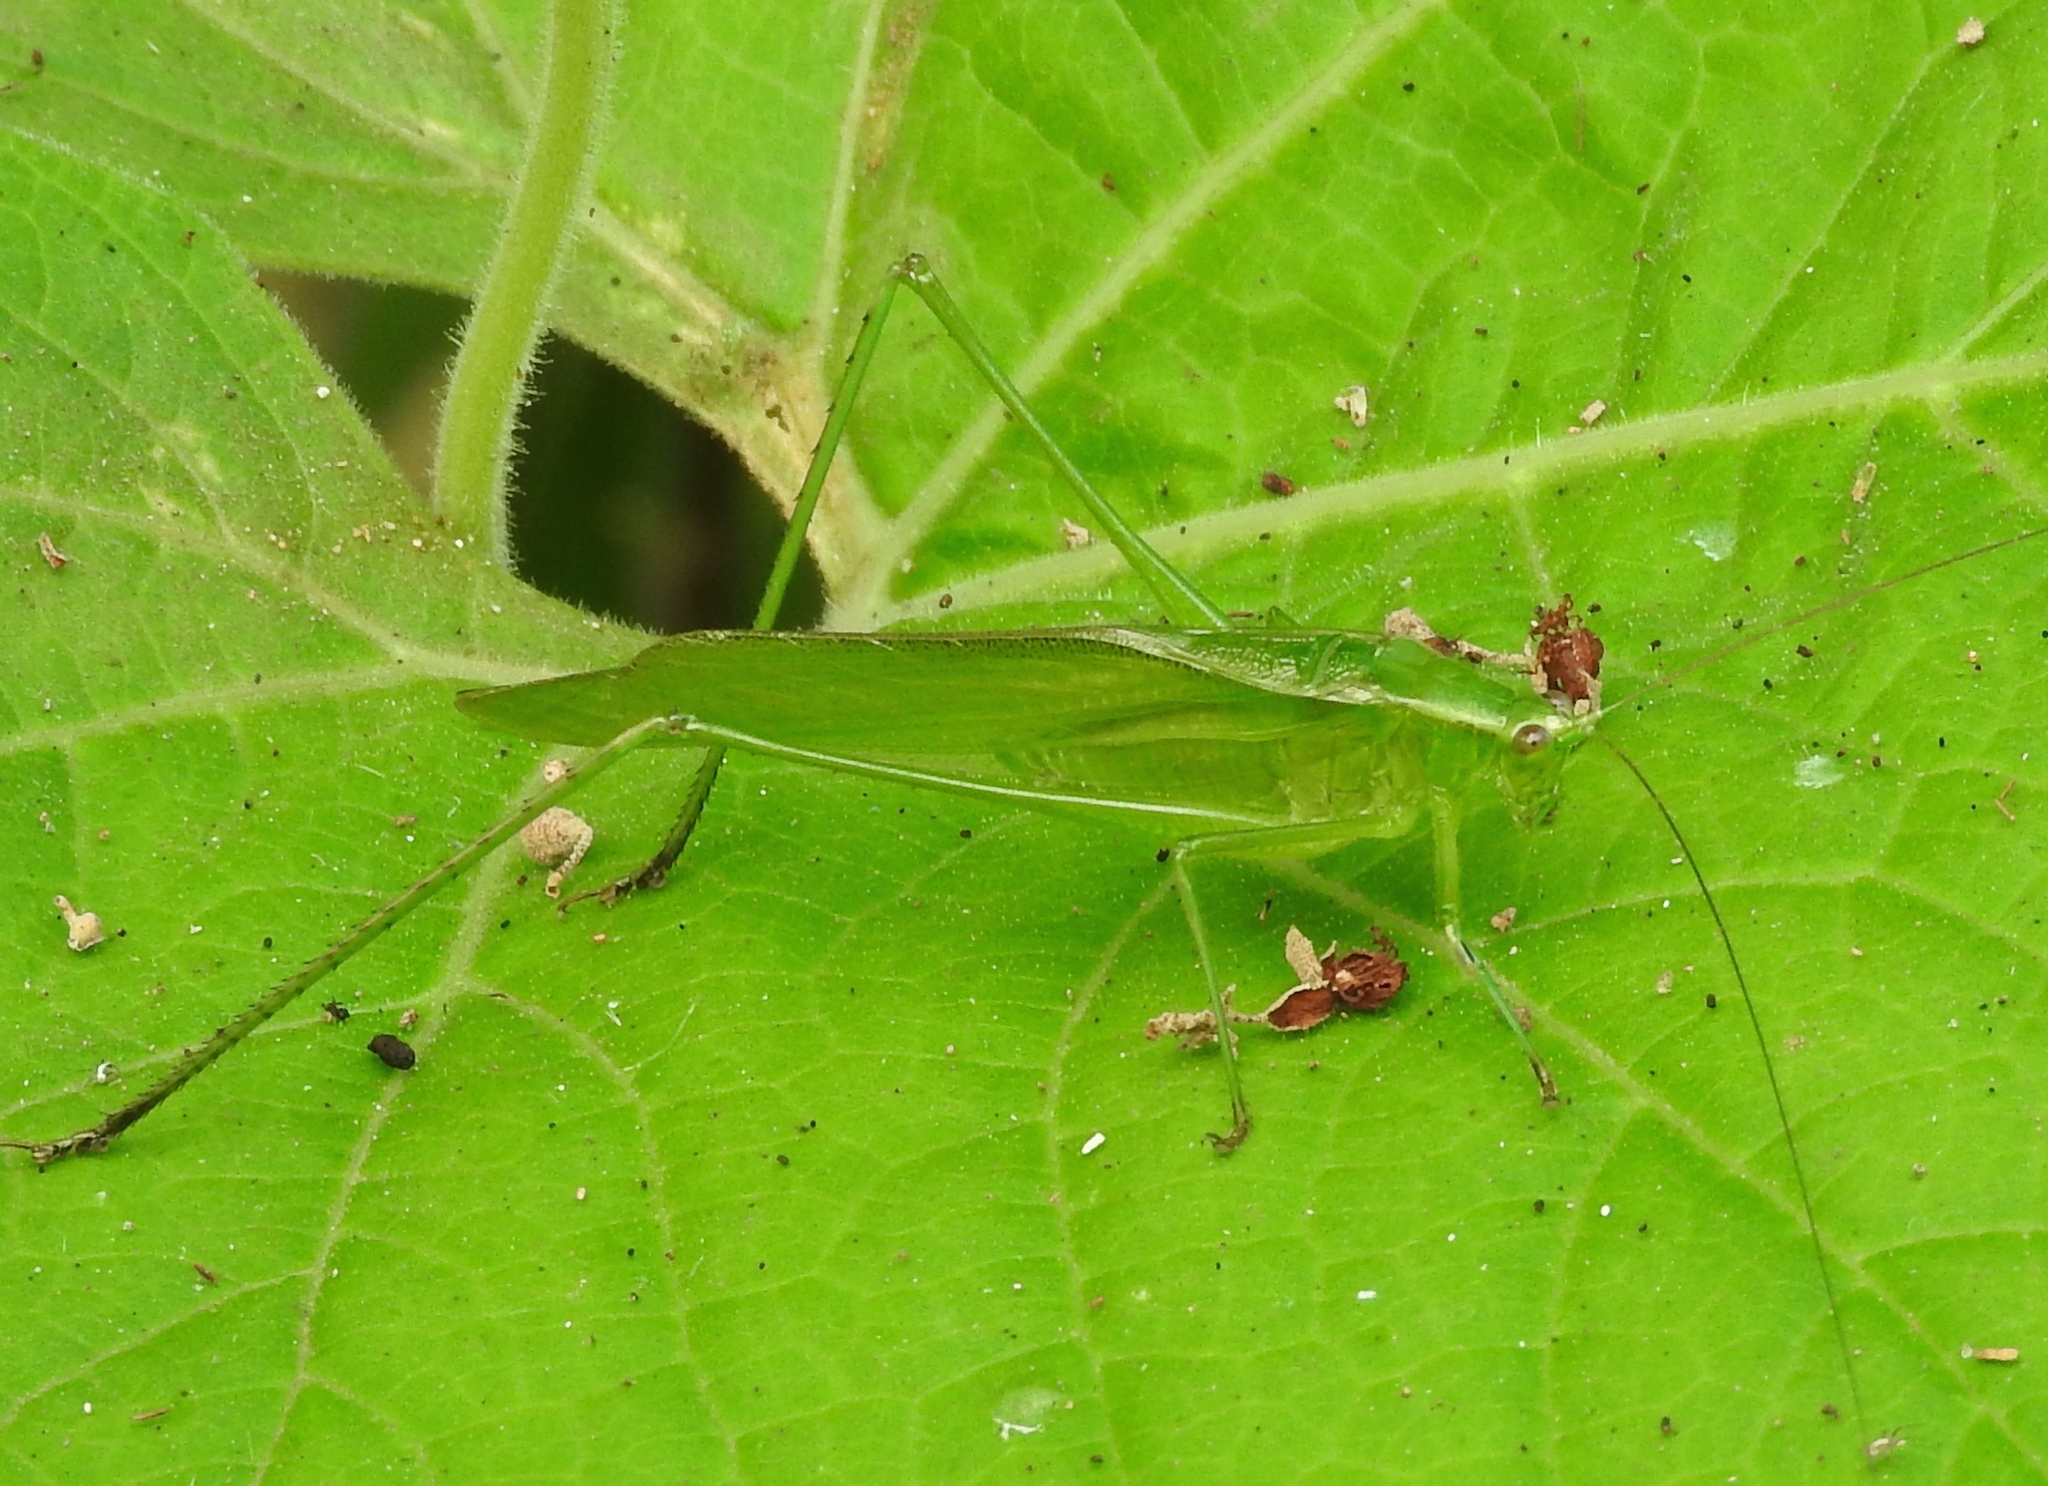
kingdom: Animalia
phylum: Arthropoda
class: Insecta
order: Orthoptera
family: Tettigoniidae
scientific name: Tettigoniidae
